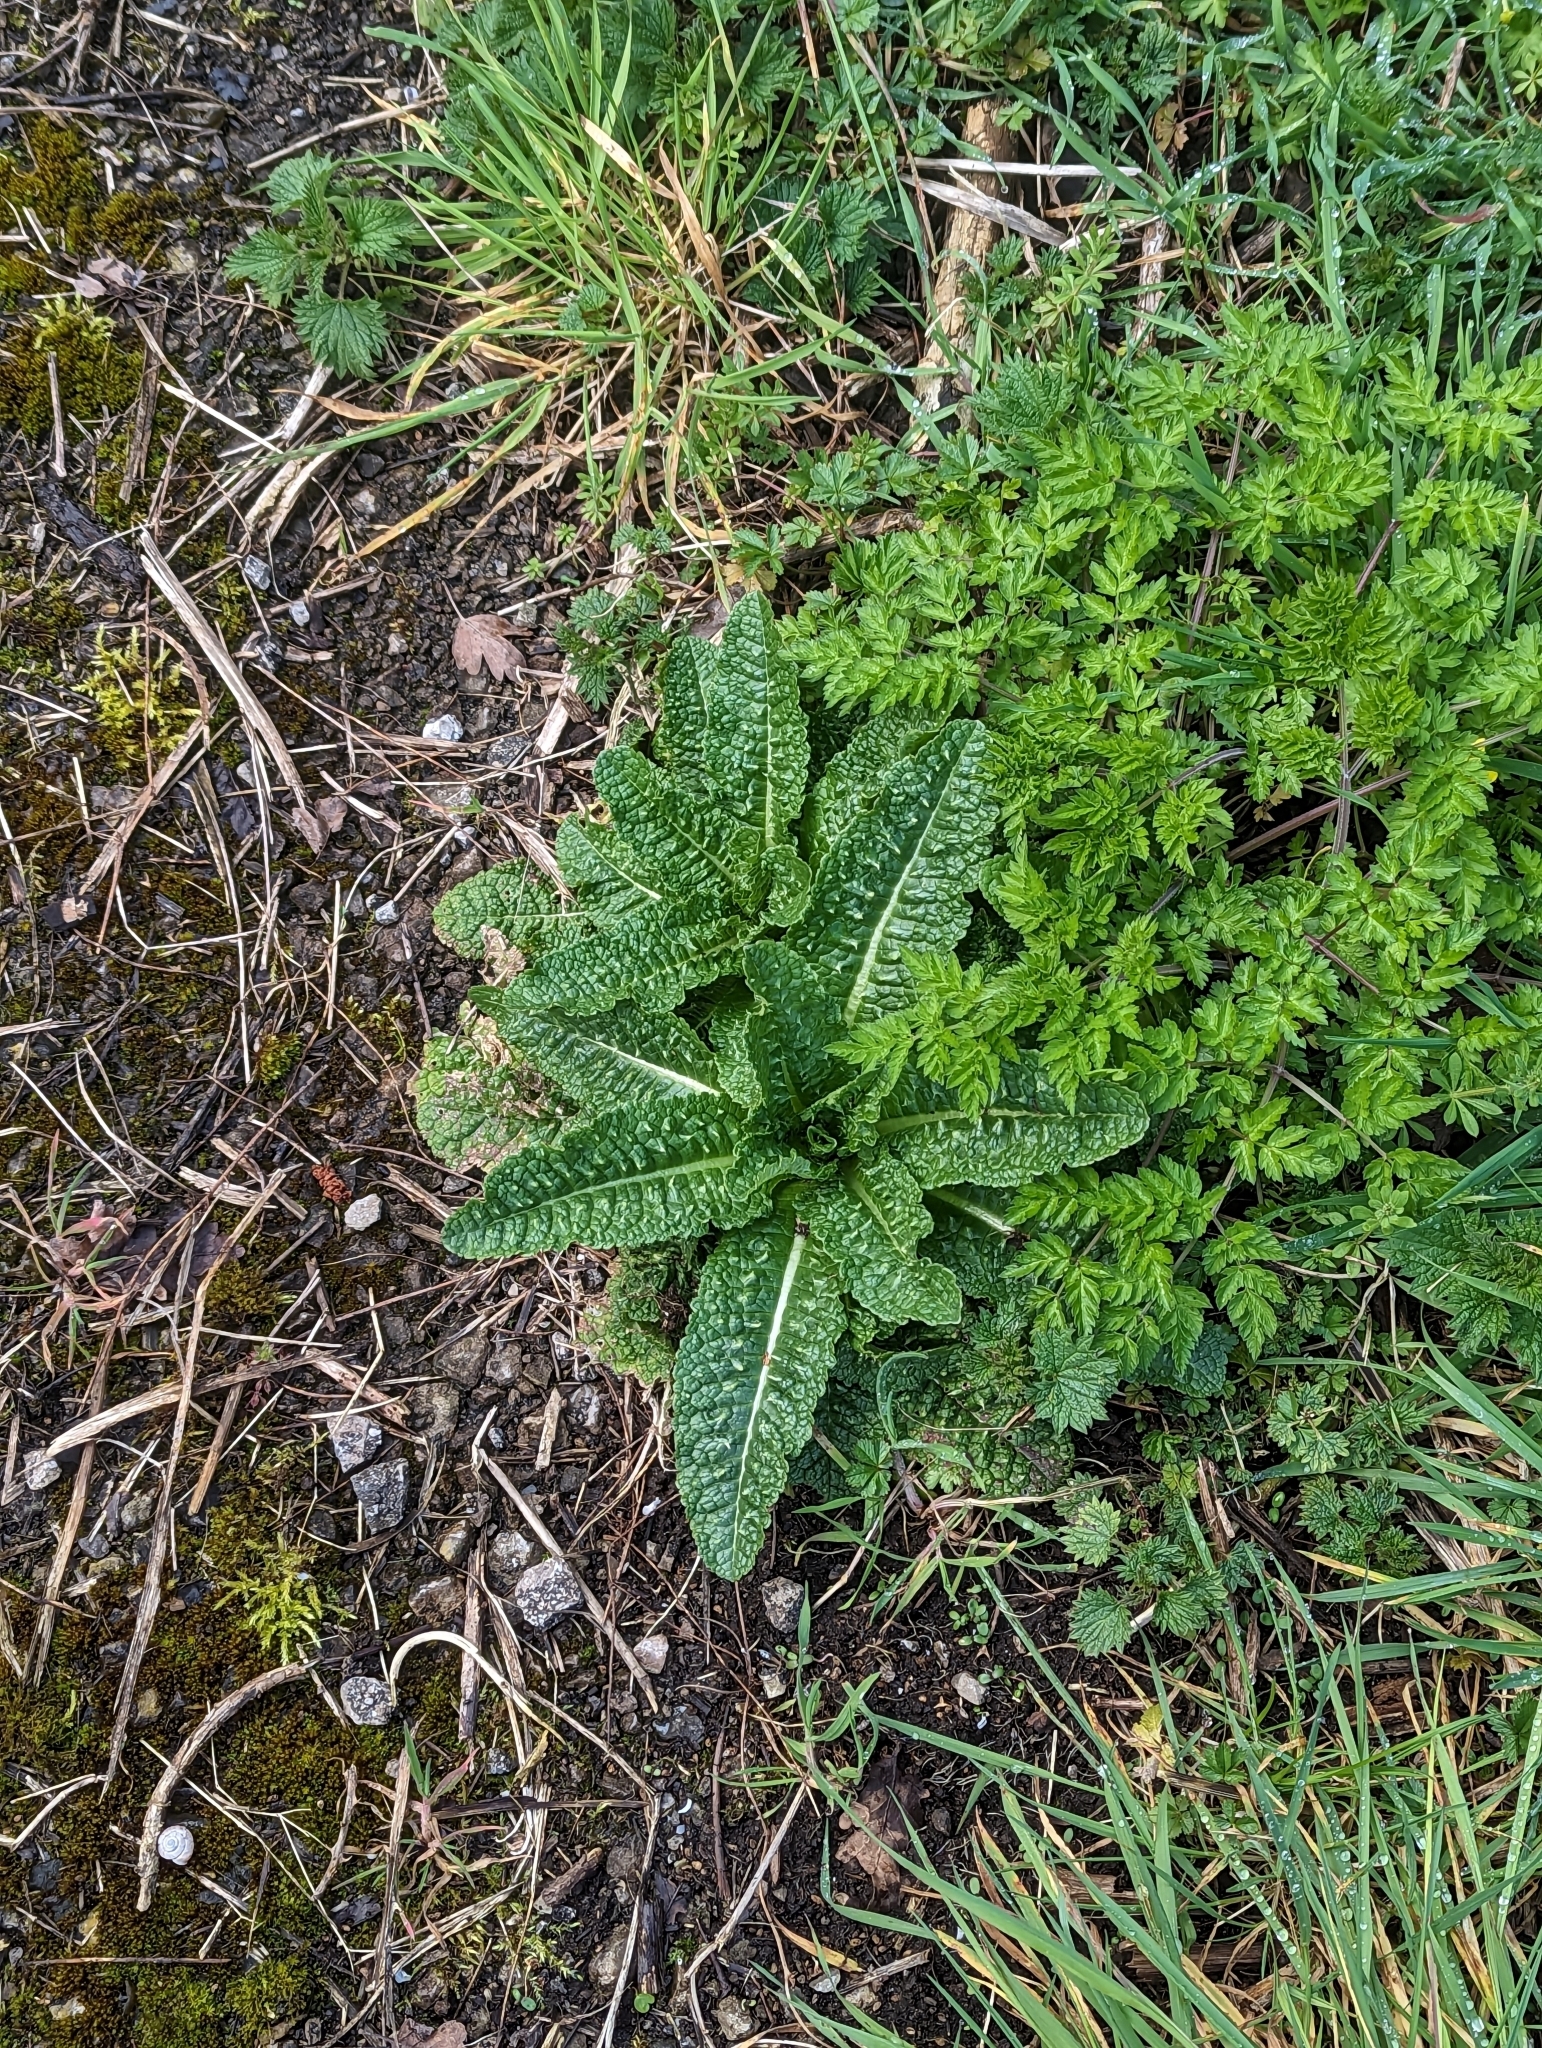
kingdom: Plantae
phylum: Tracheophyta
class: Magnoliopsida
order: Dipsacales
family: Caprifoliaceae
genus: Dipsacus
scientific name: Dipsacus fullonum
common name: Teasel
